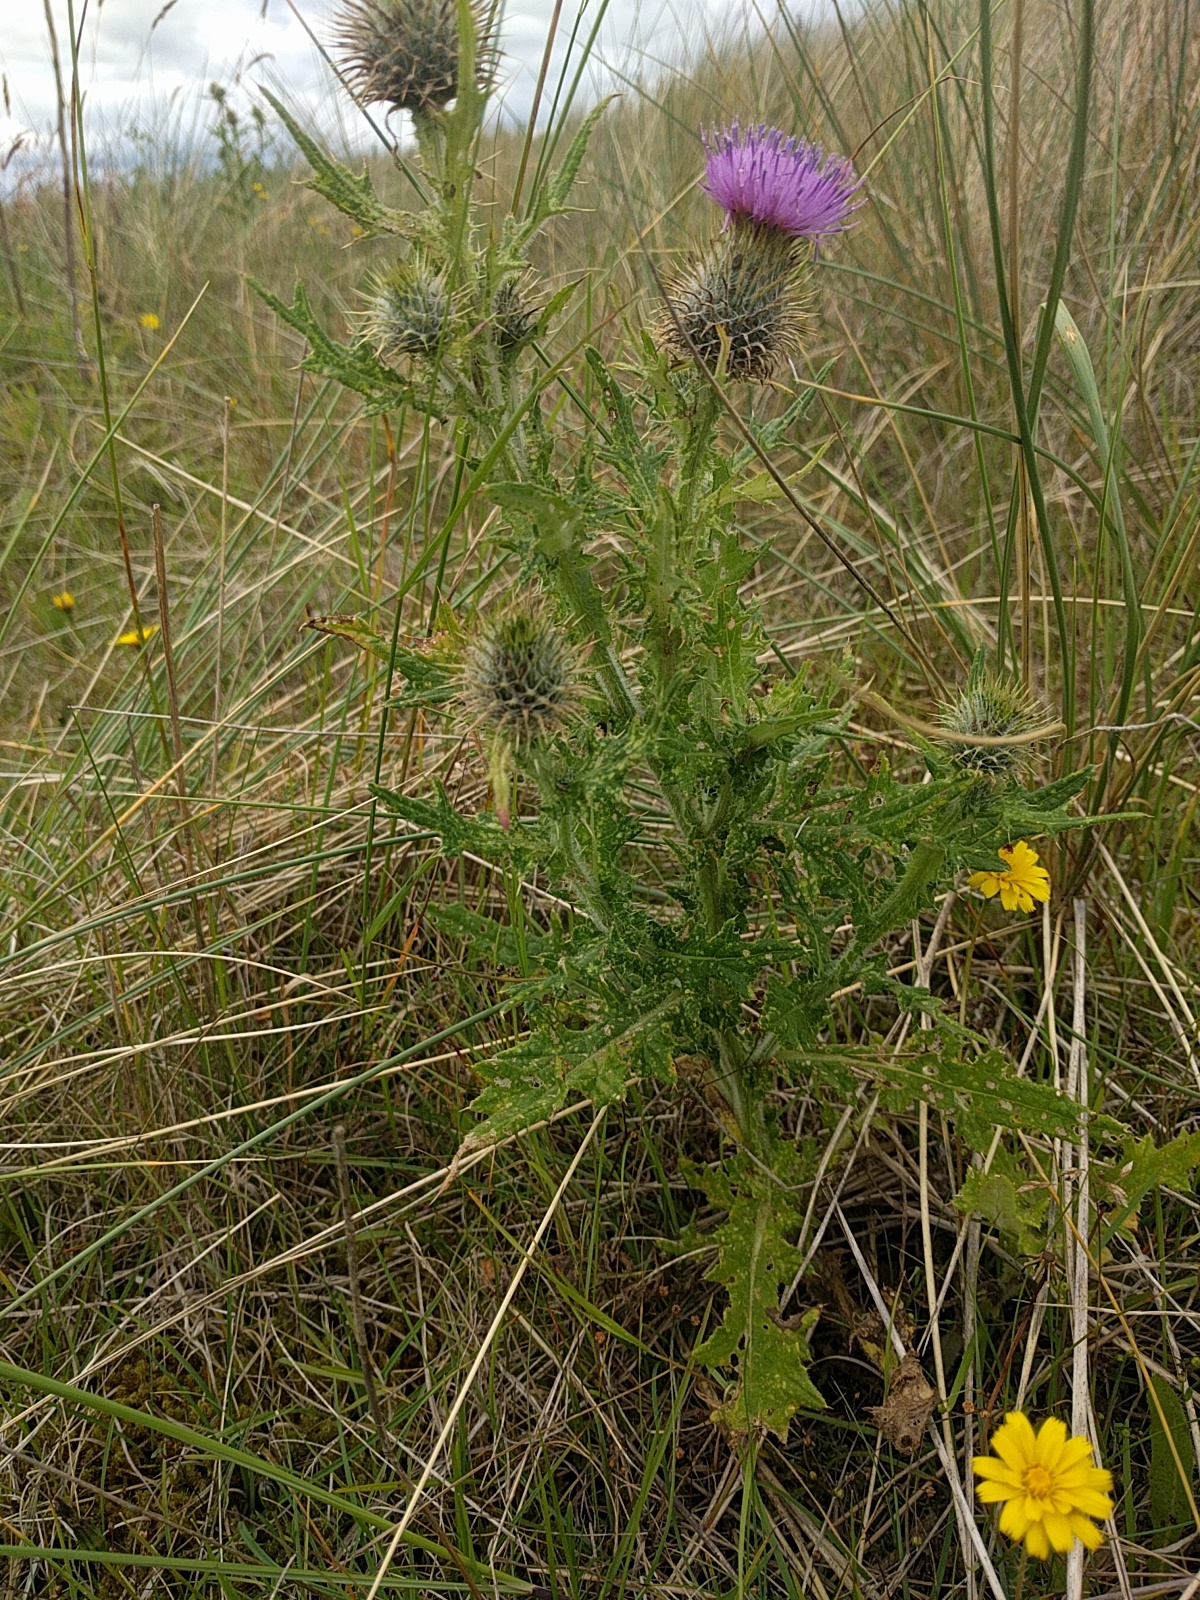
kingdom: Plantae
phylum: Tracheophyta
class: Magnoliopsida
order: Asterales
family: Asteraceae
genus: Cirsium
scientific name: Cirsium vulgare
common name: Bull thistle
